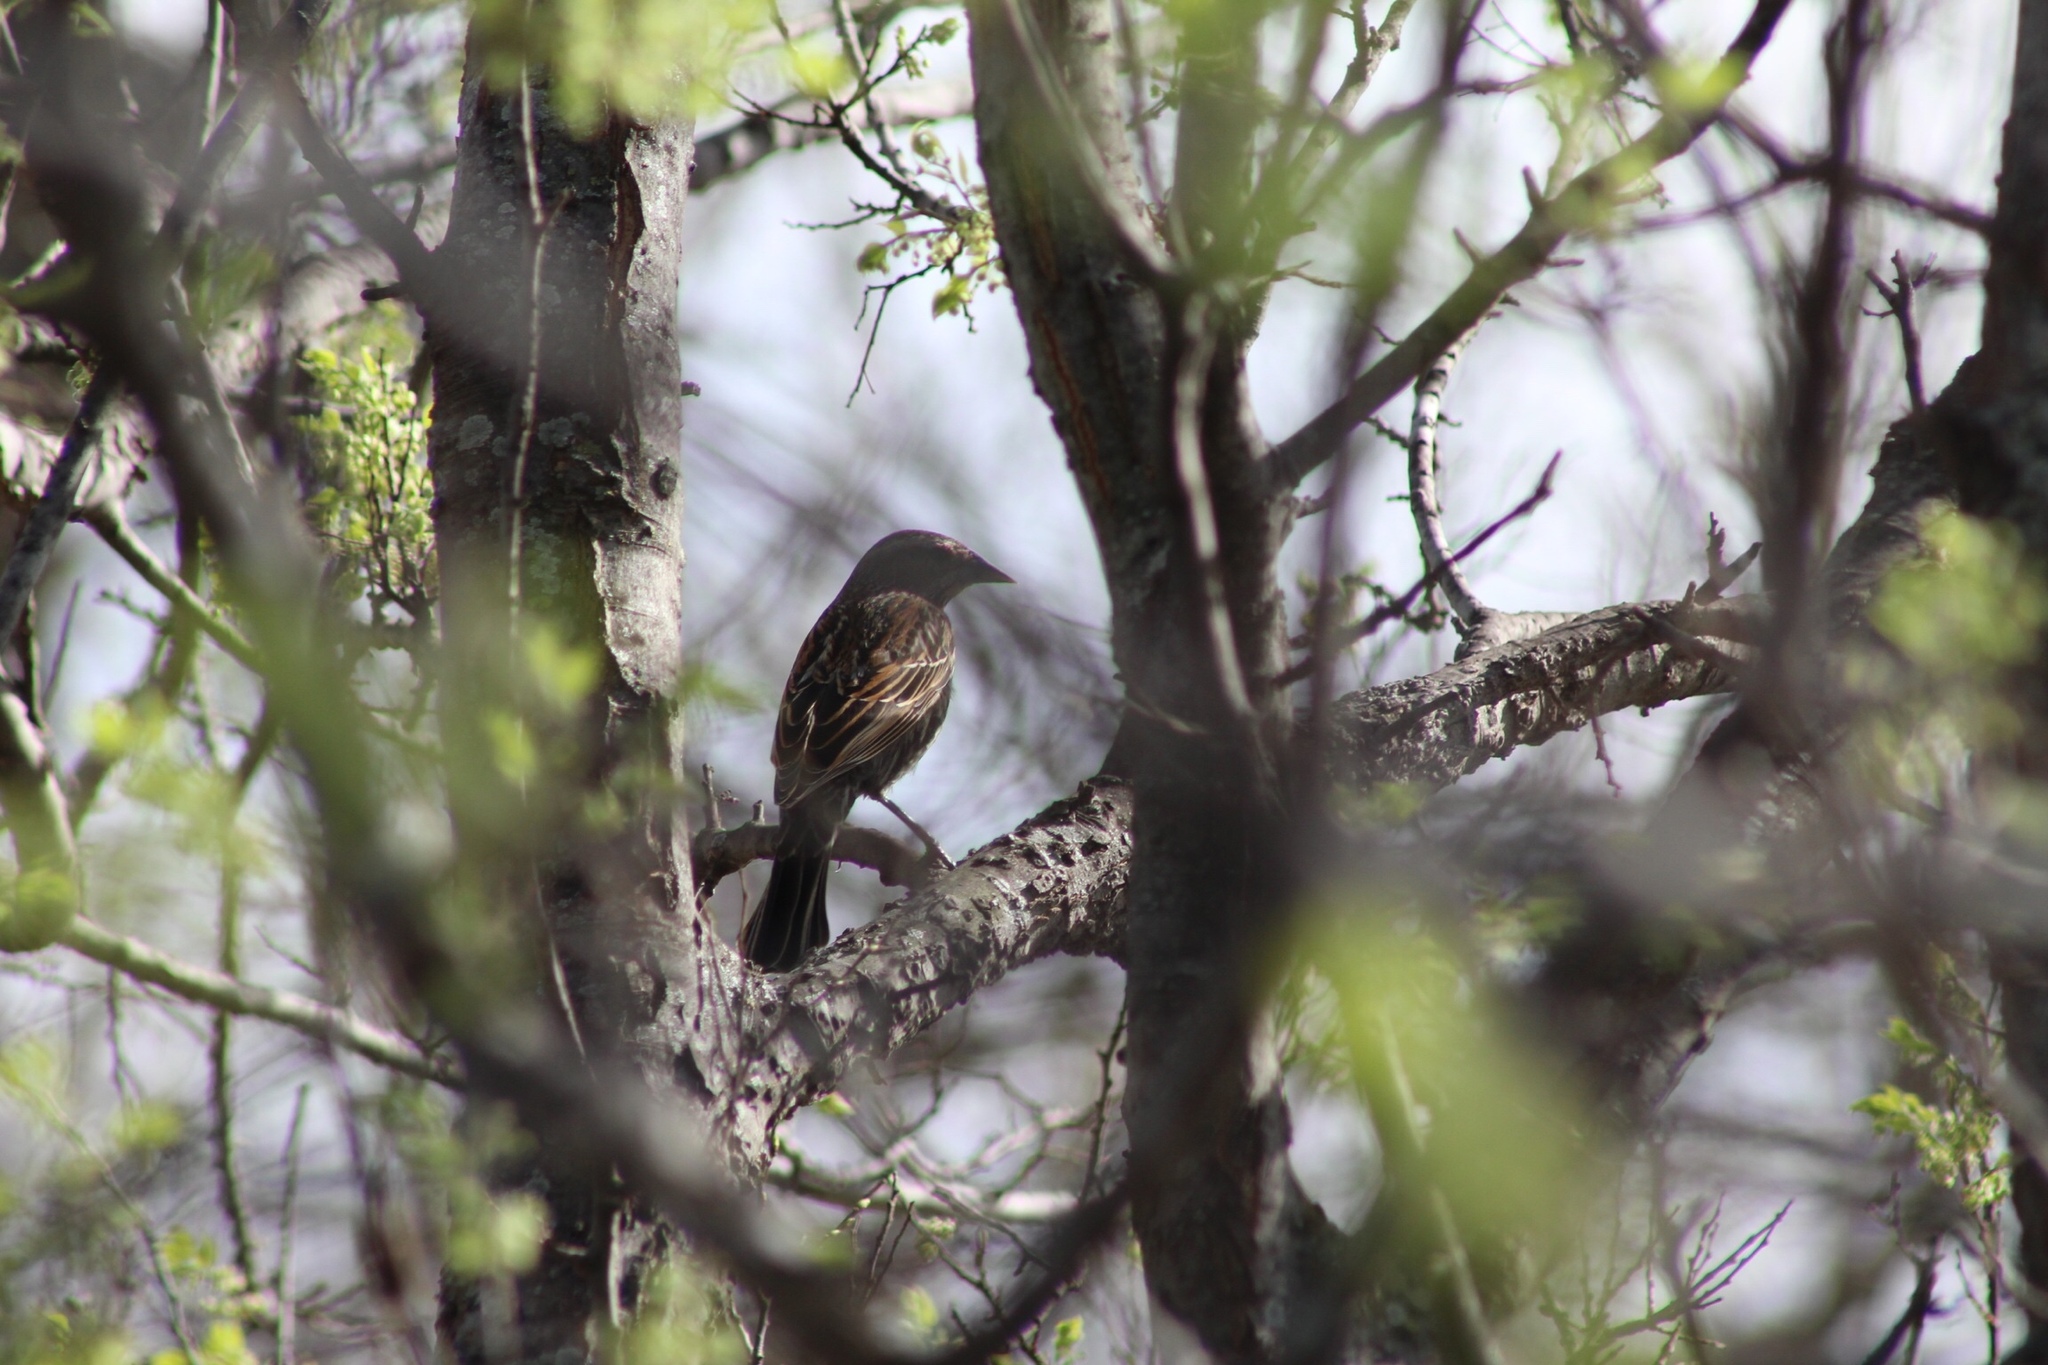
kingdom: Animalia
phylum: Chordata
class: Aves
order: Passeriformes
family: Icteridae
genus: Agelaius
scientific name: Agelaius phoeniceus
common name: Red-winged blackbird
